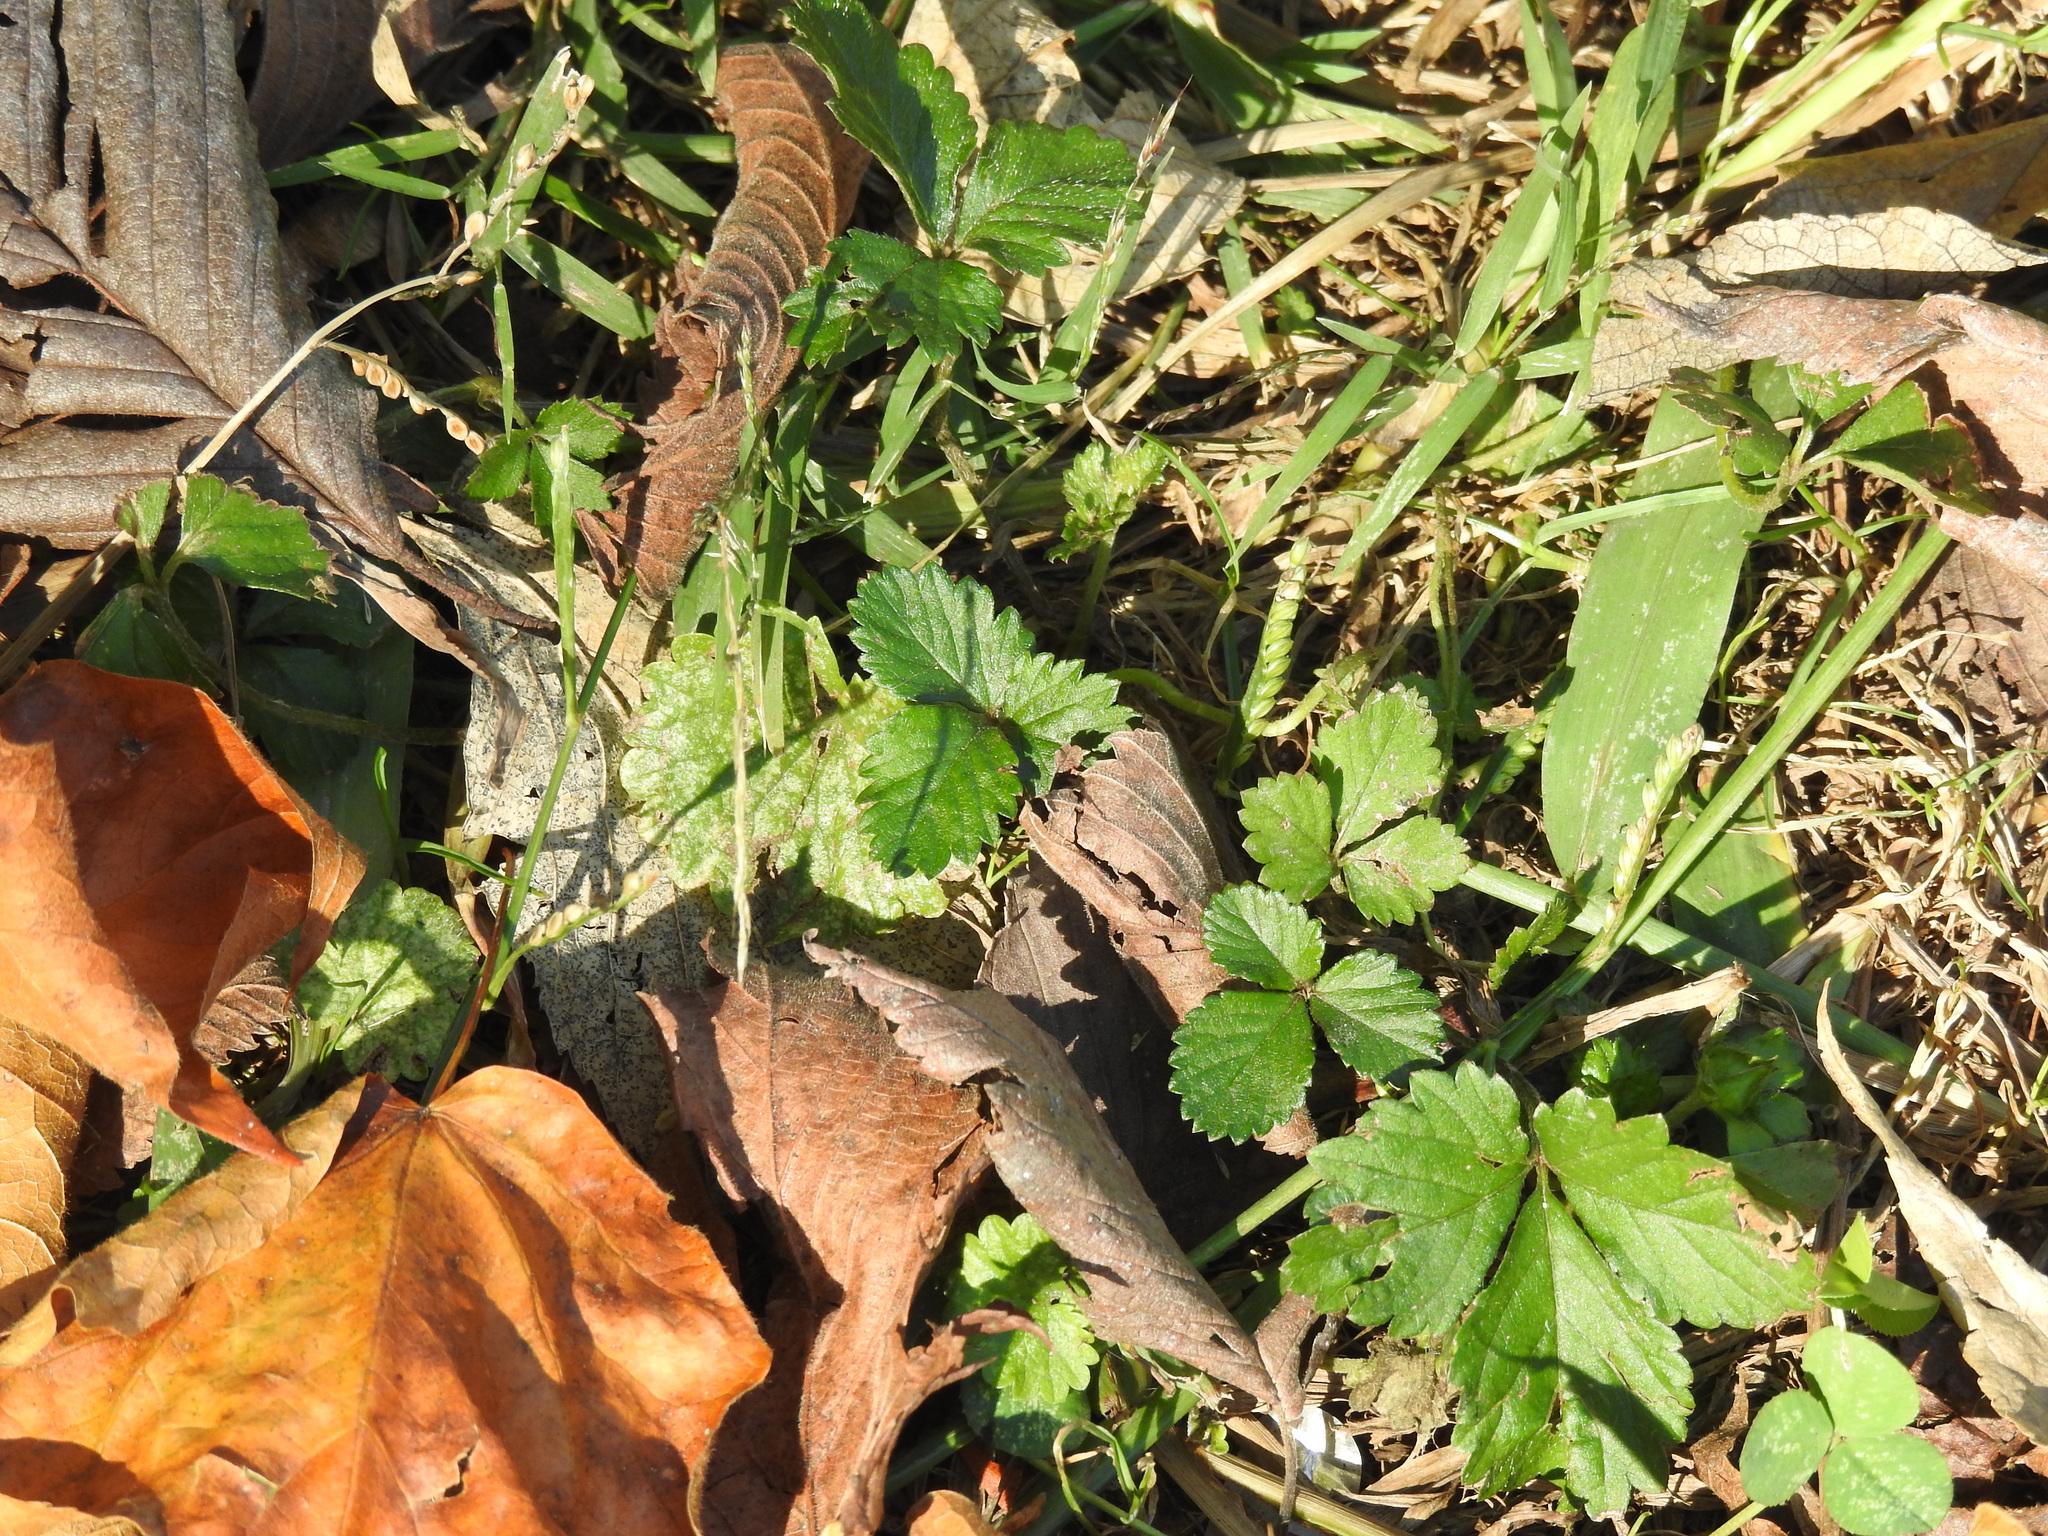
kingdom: Plantae
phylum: Tracheophyta
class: Magnoliopsida
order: Rosales
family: Rosaceae
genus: Potentilla
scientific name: Potentilla indica
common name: Yellow-flowered strawberry
